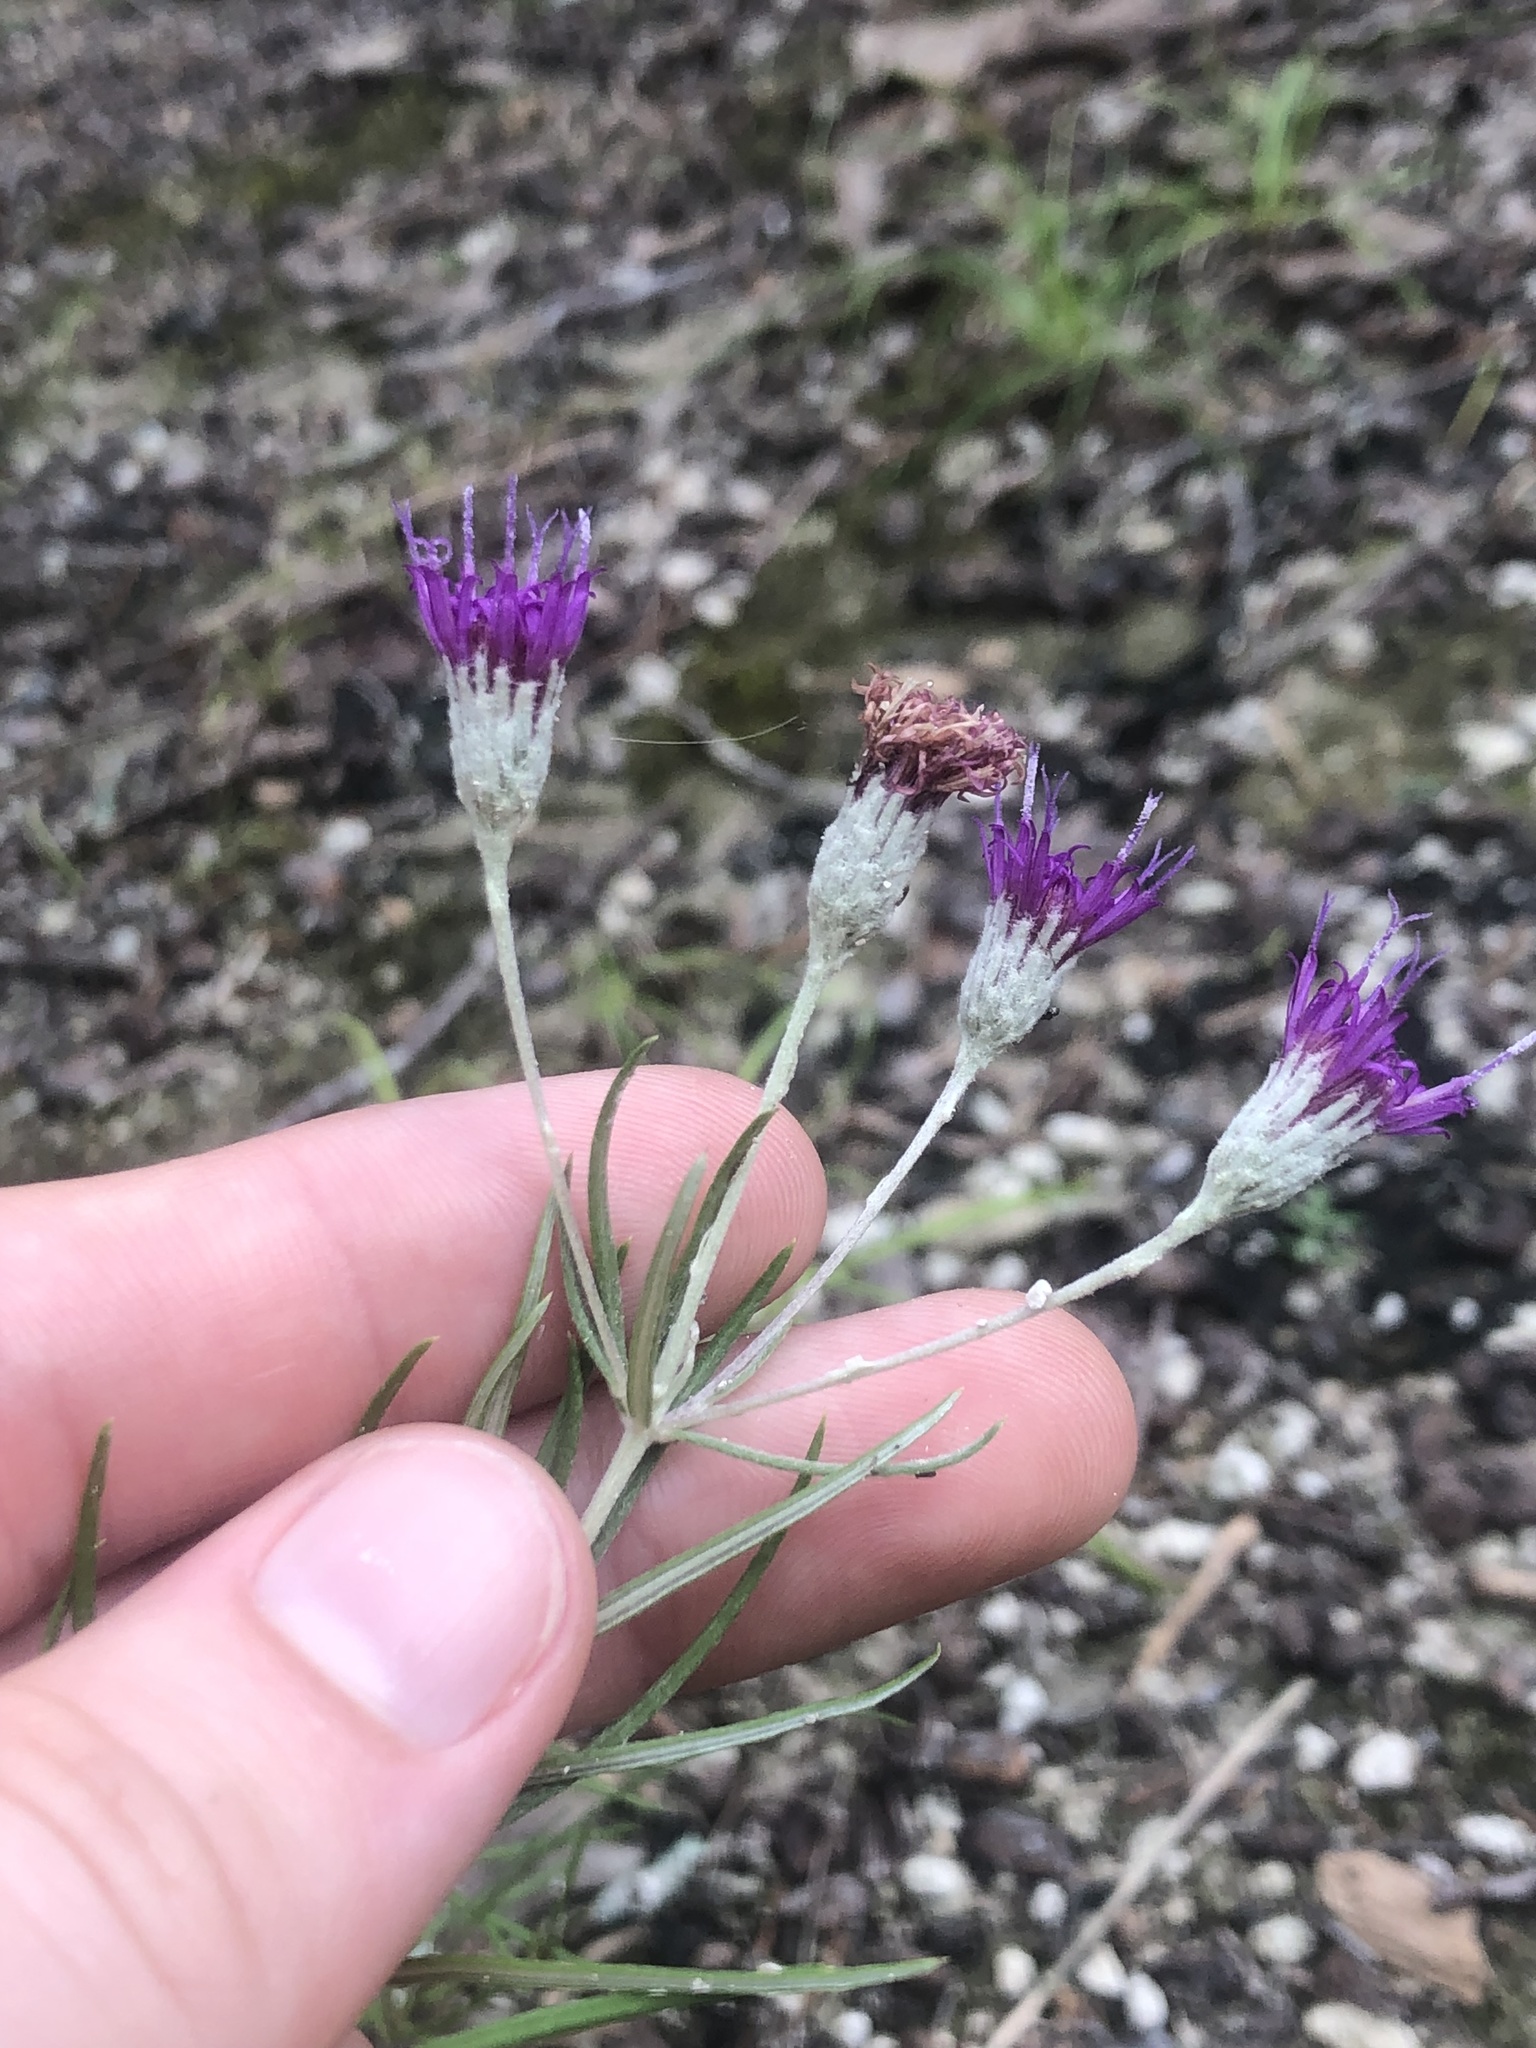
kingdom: Plantae
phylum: Tracheophyta
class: Magnoliopsida
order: Asterales
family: Asteraceae
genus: Vernonia
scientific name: Vernonia lindheimeri
